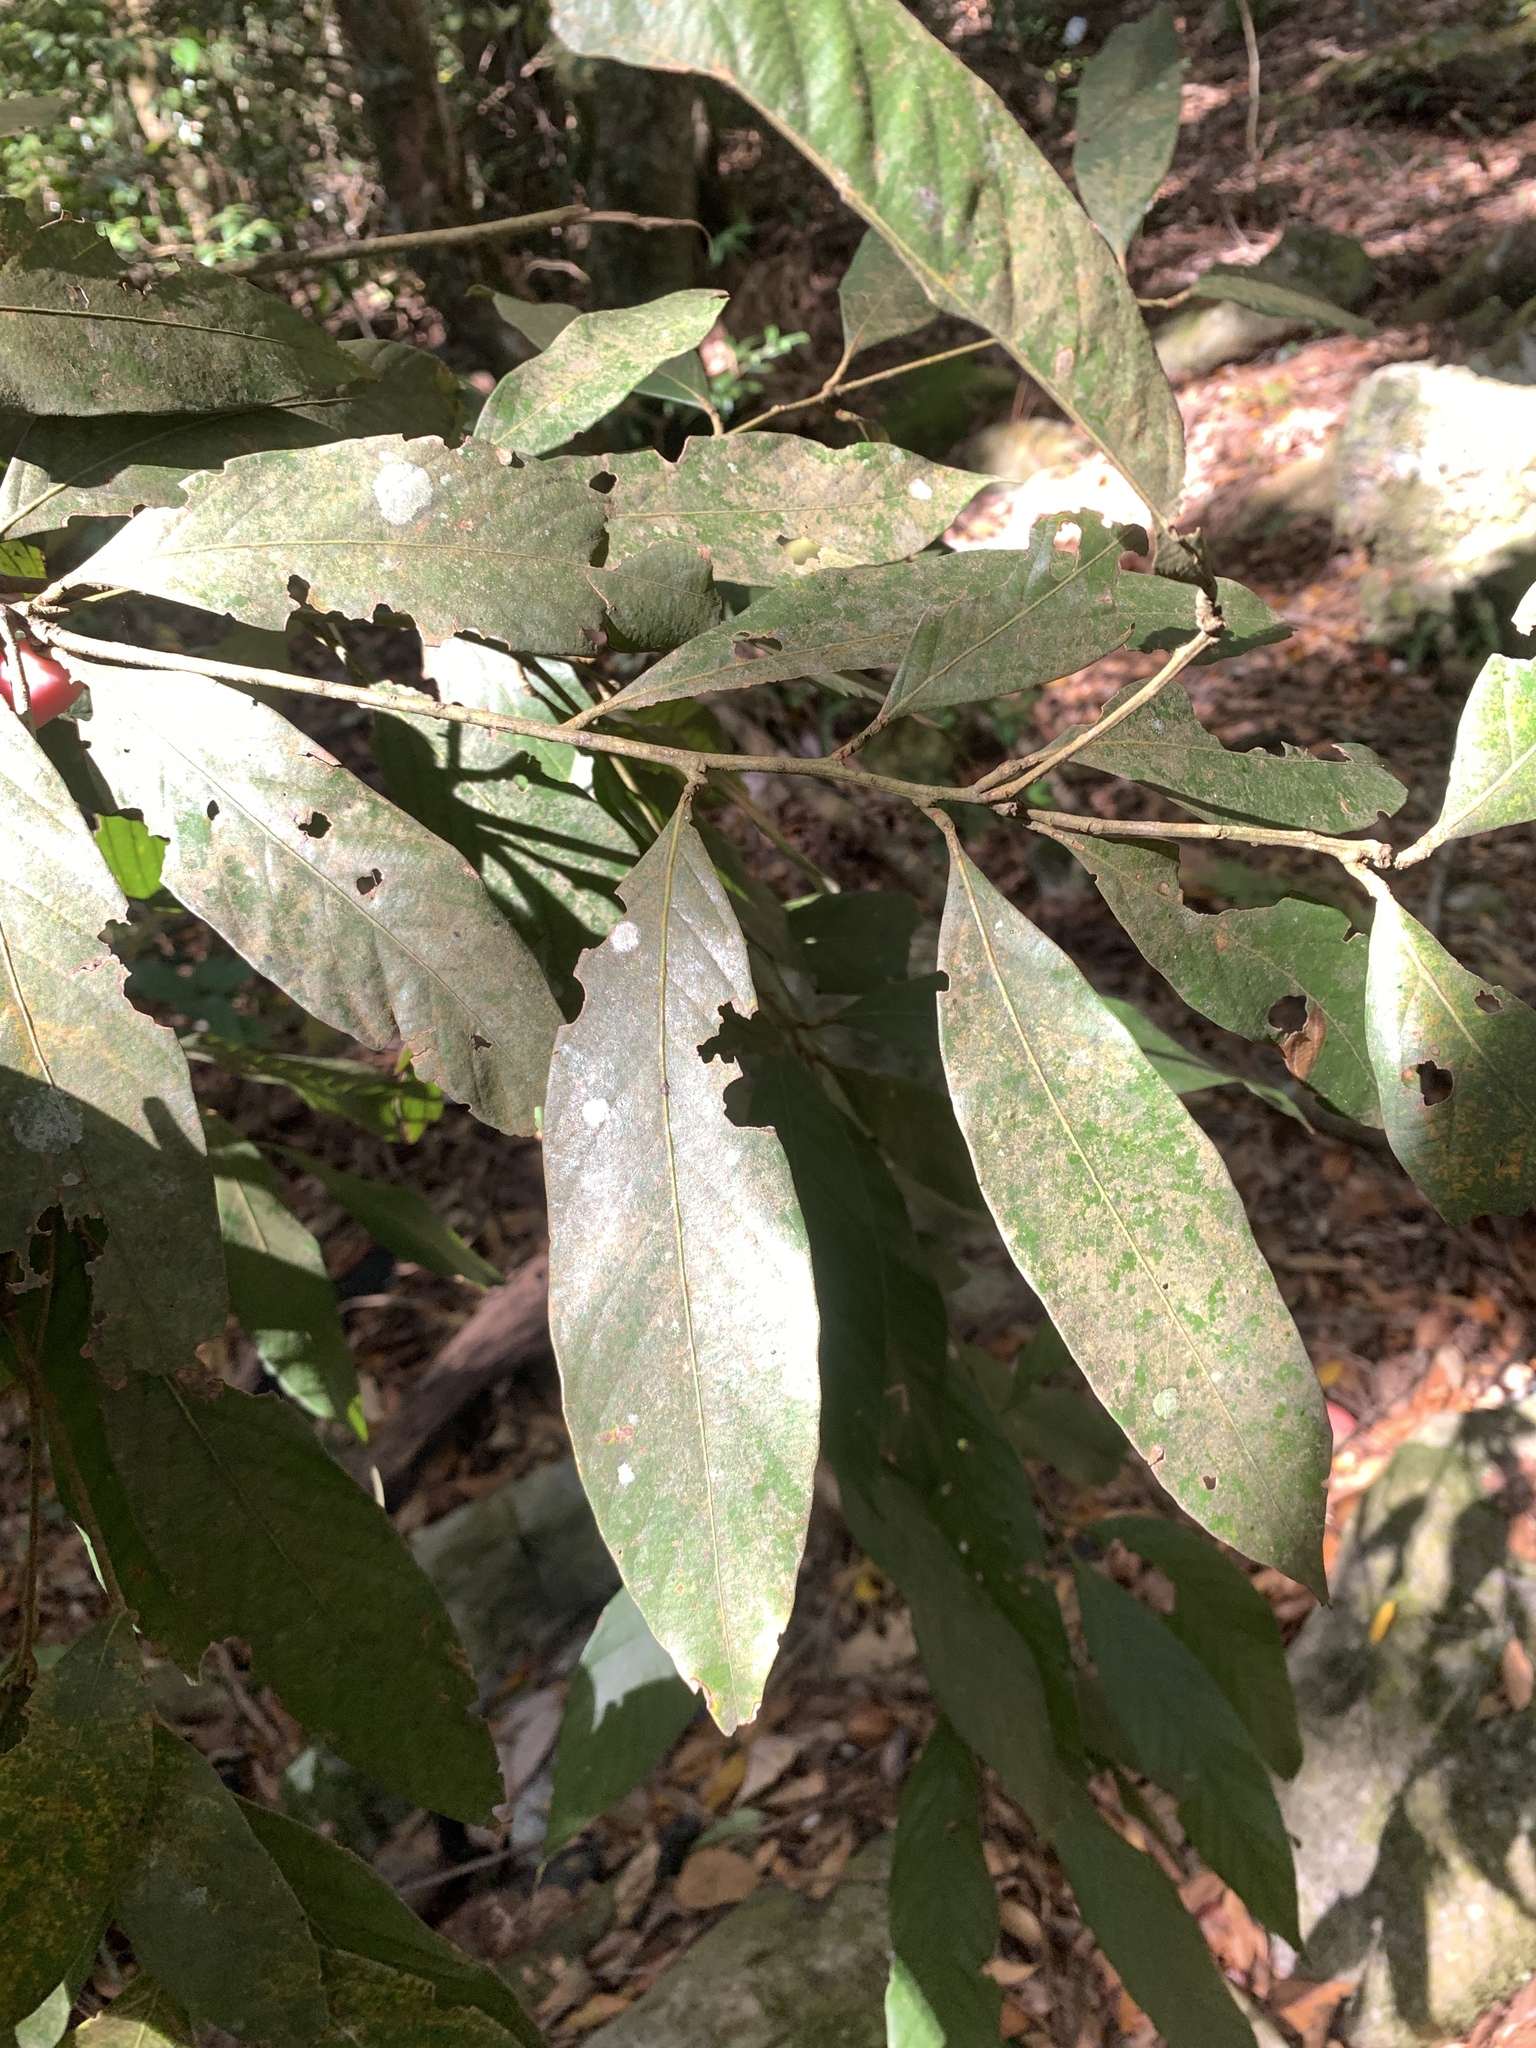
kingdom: Plantae
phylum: Tracheophyta
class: Magnoliopsida
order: Fagales
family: Fagaceae
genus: Lithocarpus
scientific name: Lithocarpus amygdalifolius
